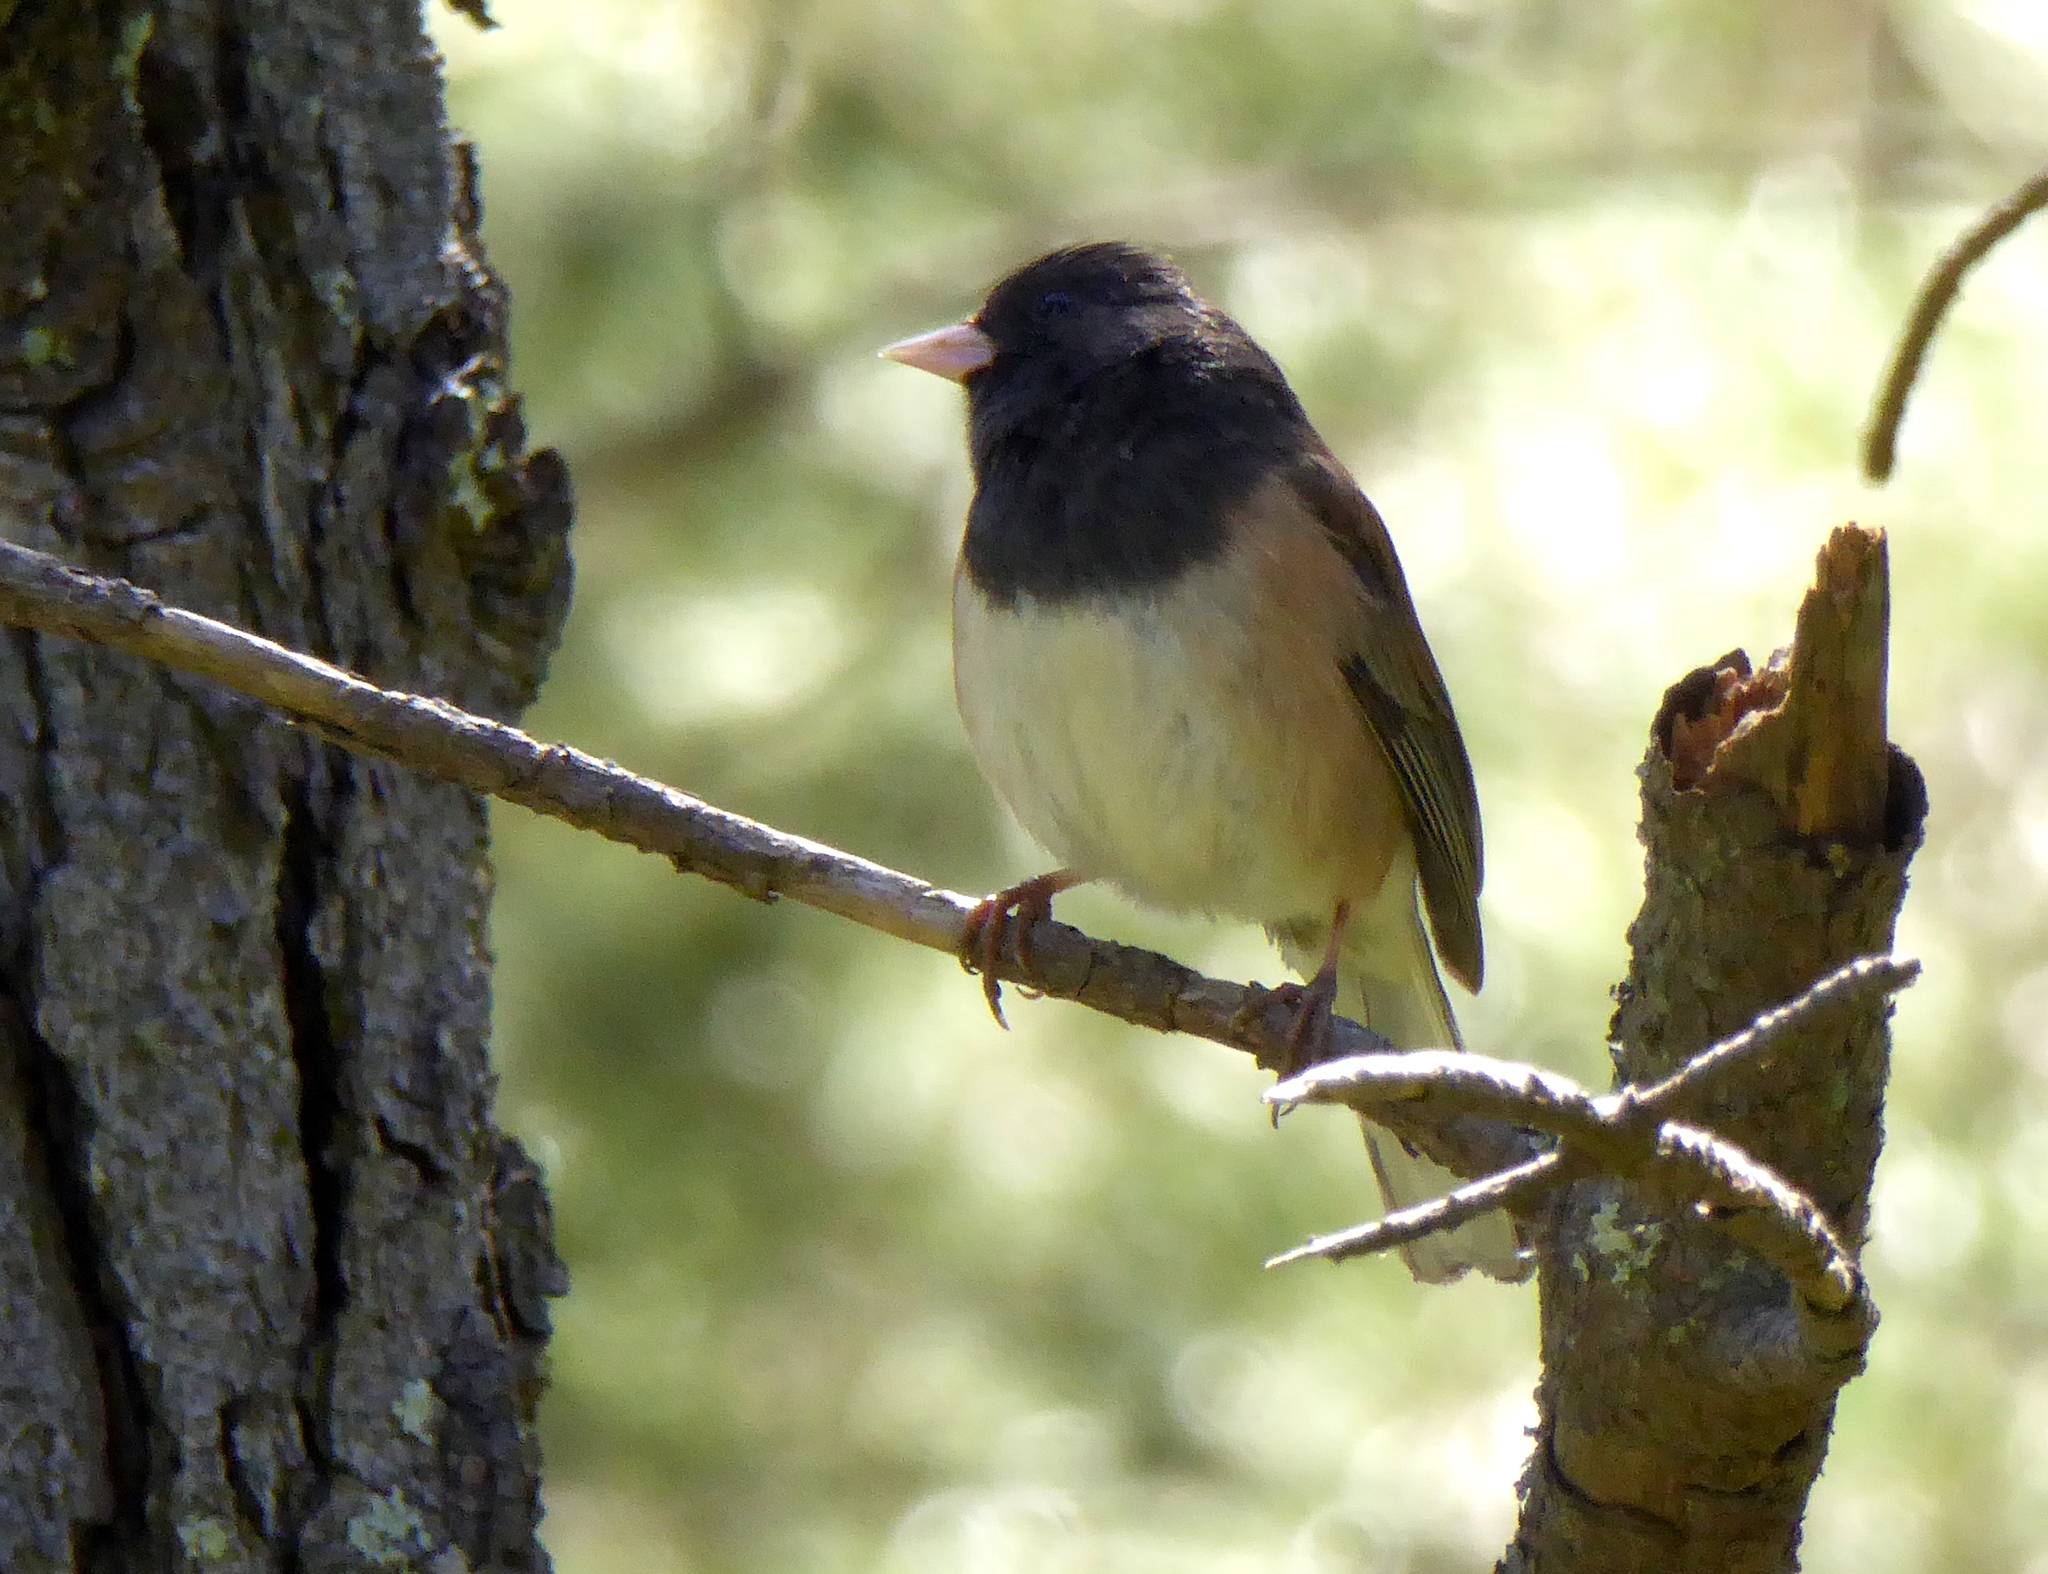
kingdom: Animalia
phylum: Chordata
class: Aves
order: Passeriformes
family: Passerellidae
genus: Junco
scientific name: Junco hyemalis
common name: Dark-eyed junco
